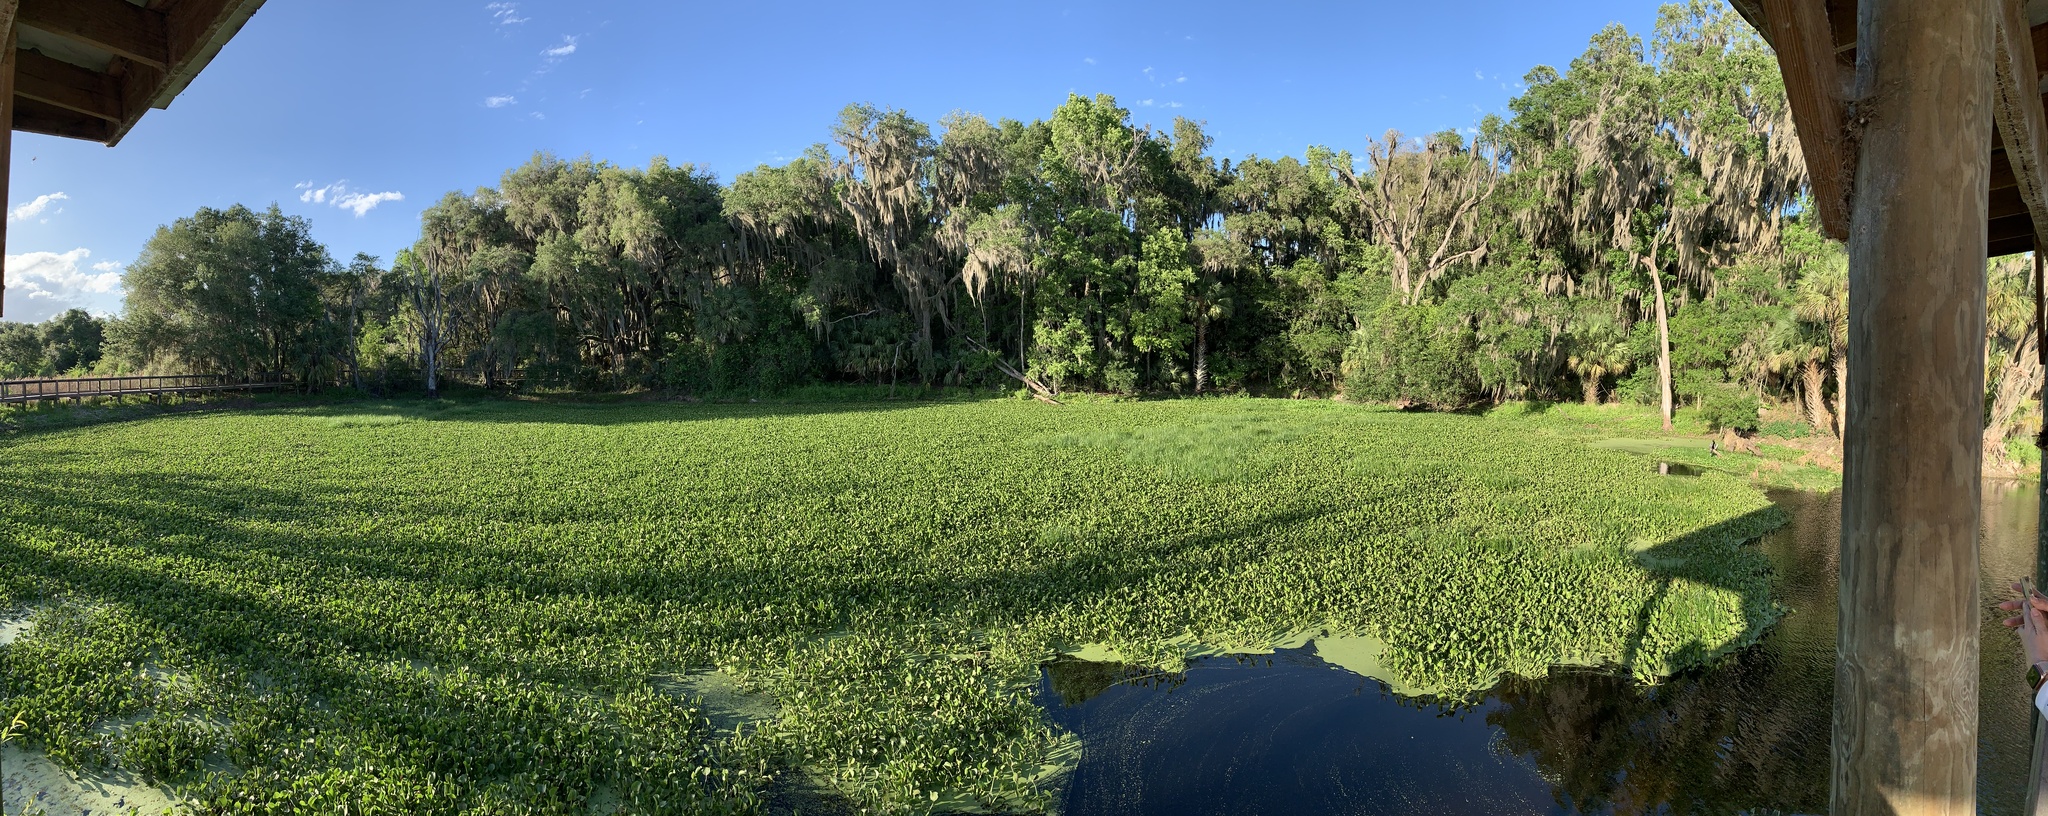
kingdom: Plantae
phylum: Tracheophyta
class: Liliopsida
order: Commelinales
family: Pontederiaceae
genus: Pontederia
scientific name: Pontederia crassipes
